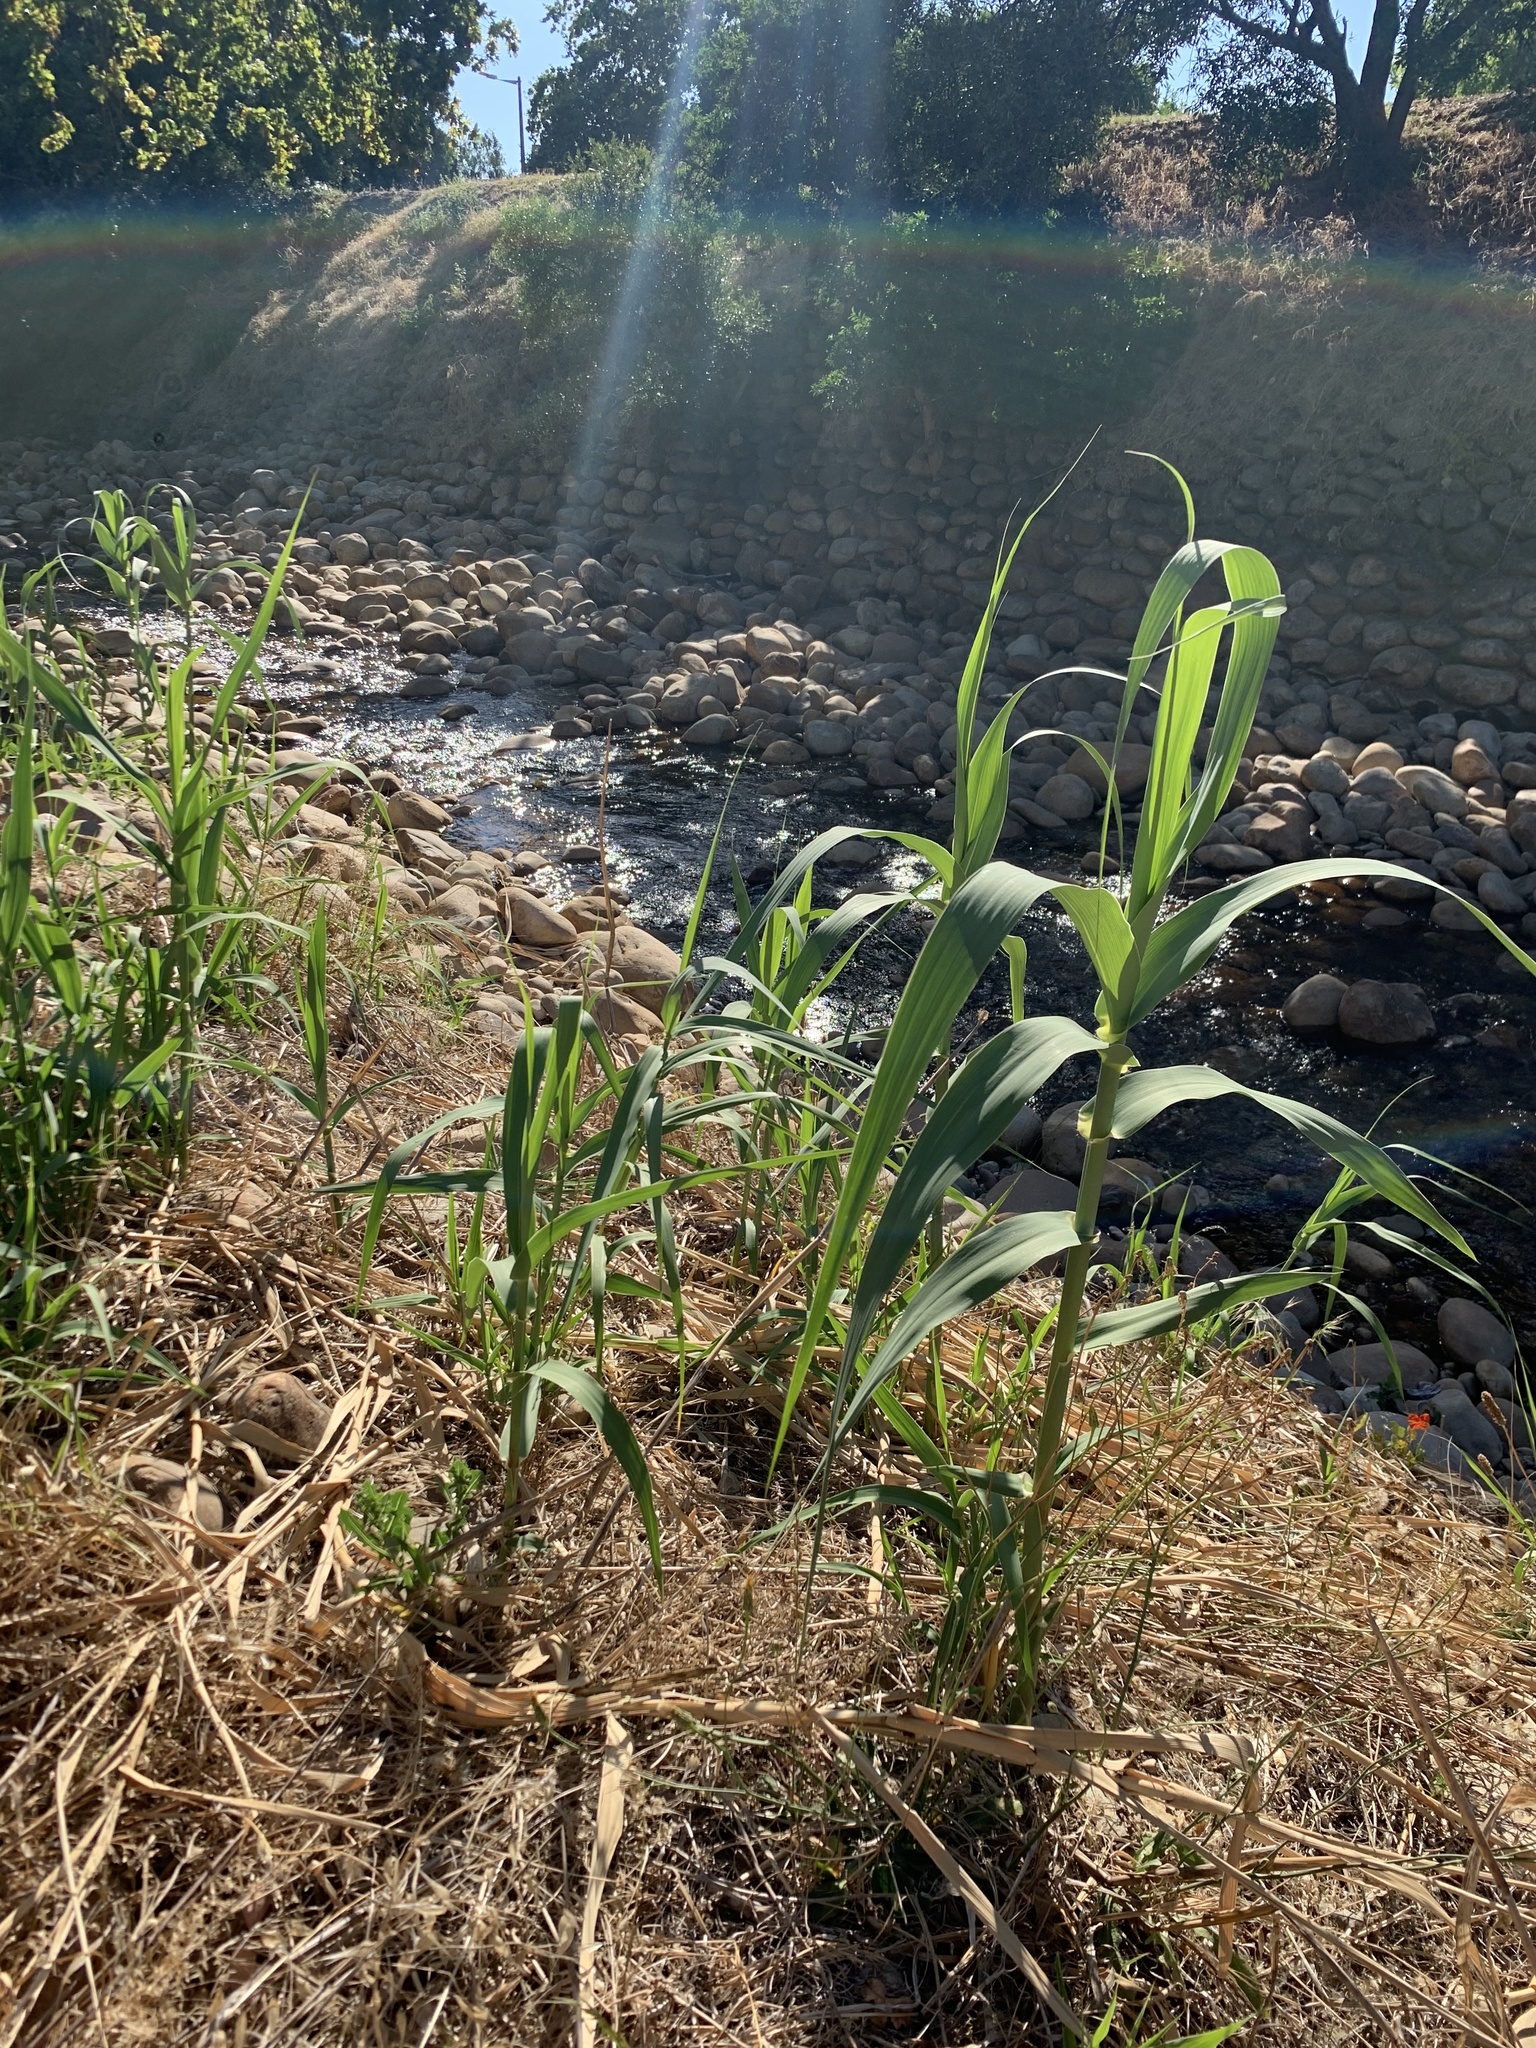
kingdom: Plantae
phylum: Tracheophyta
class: Liliopsida
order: Poales
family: Poaceae
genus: Arundo
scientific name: Arundo donax
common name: Giant reed
